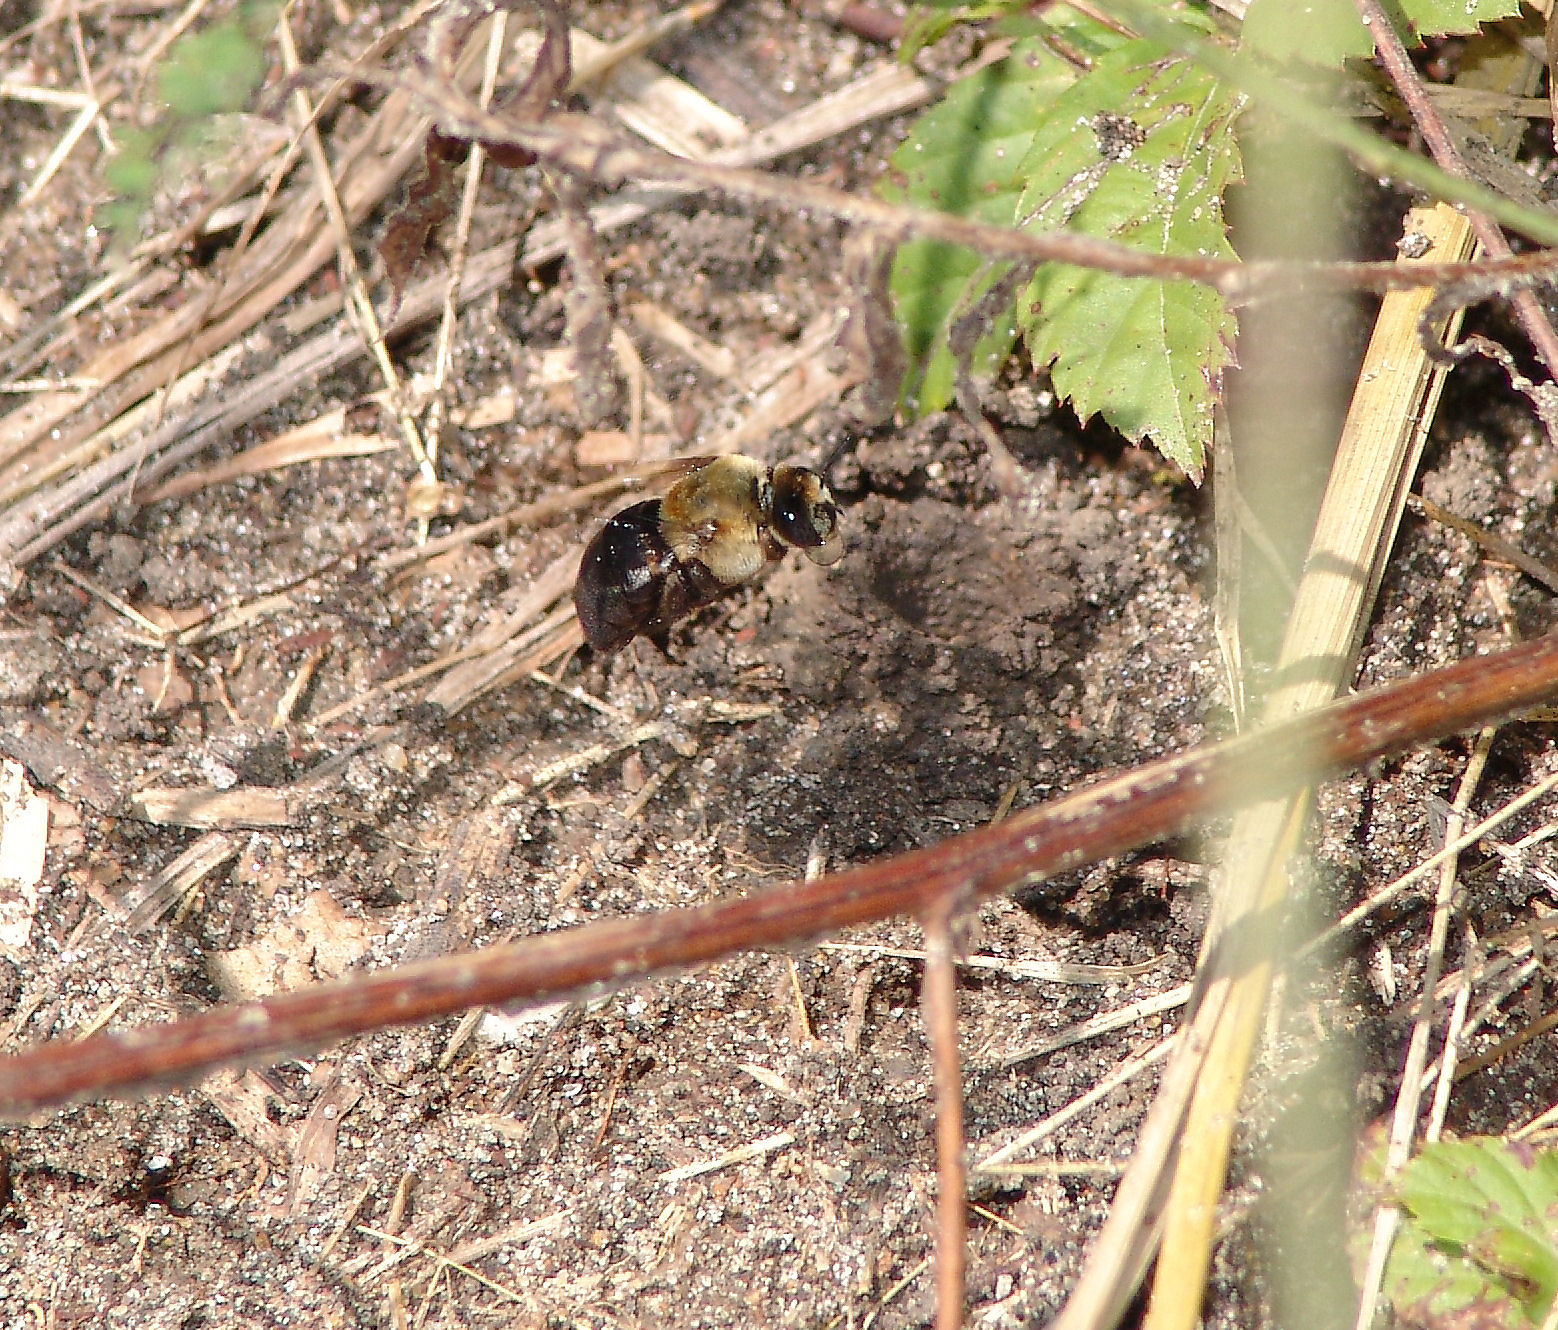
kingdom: Animalia
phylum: Arthropoda
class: Insecta
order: Hymenoptera
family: Apidae
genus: Ptilothrix
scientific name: Ptilothrix bombiformis
